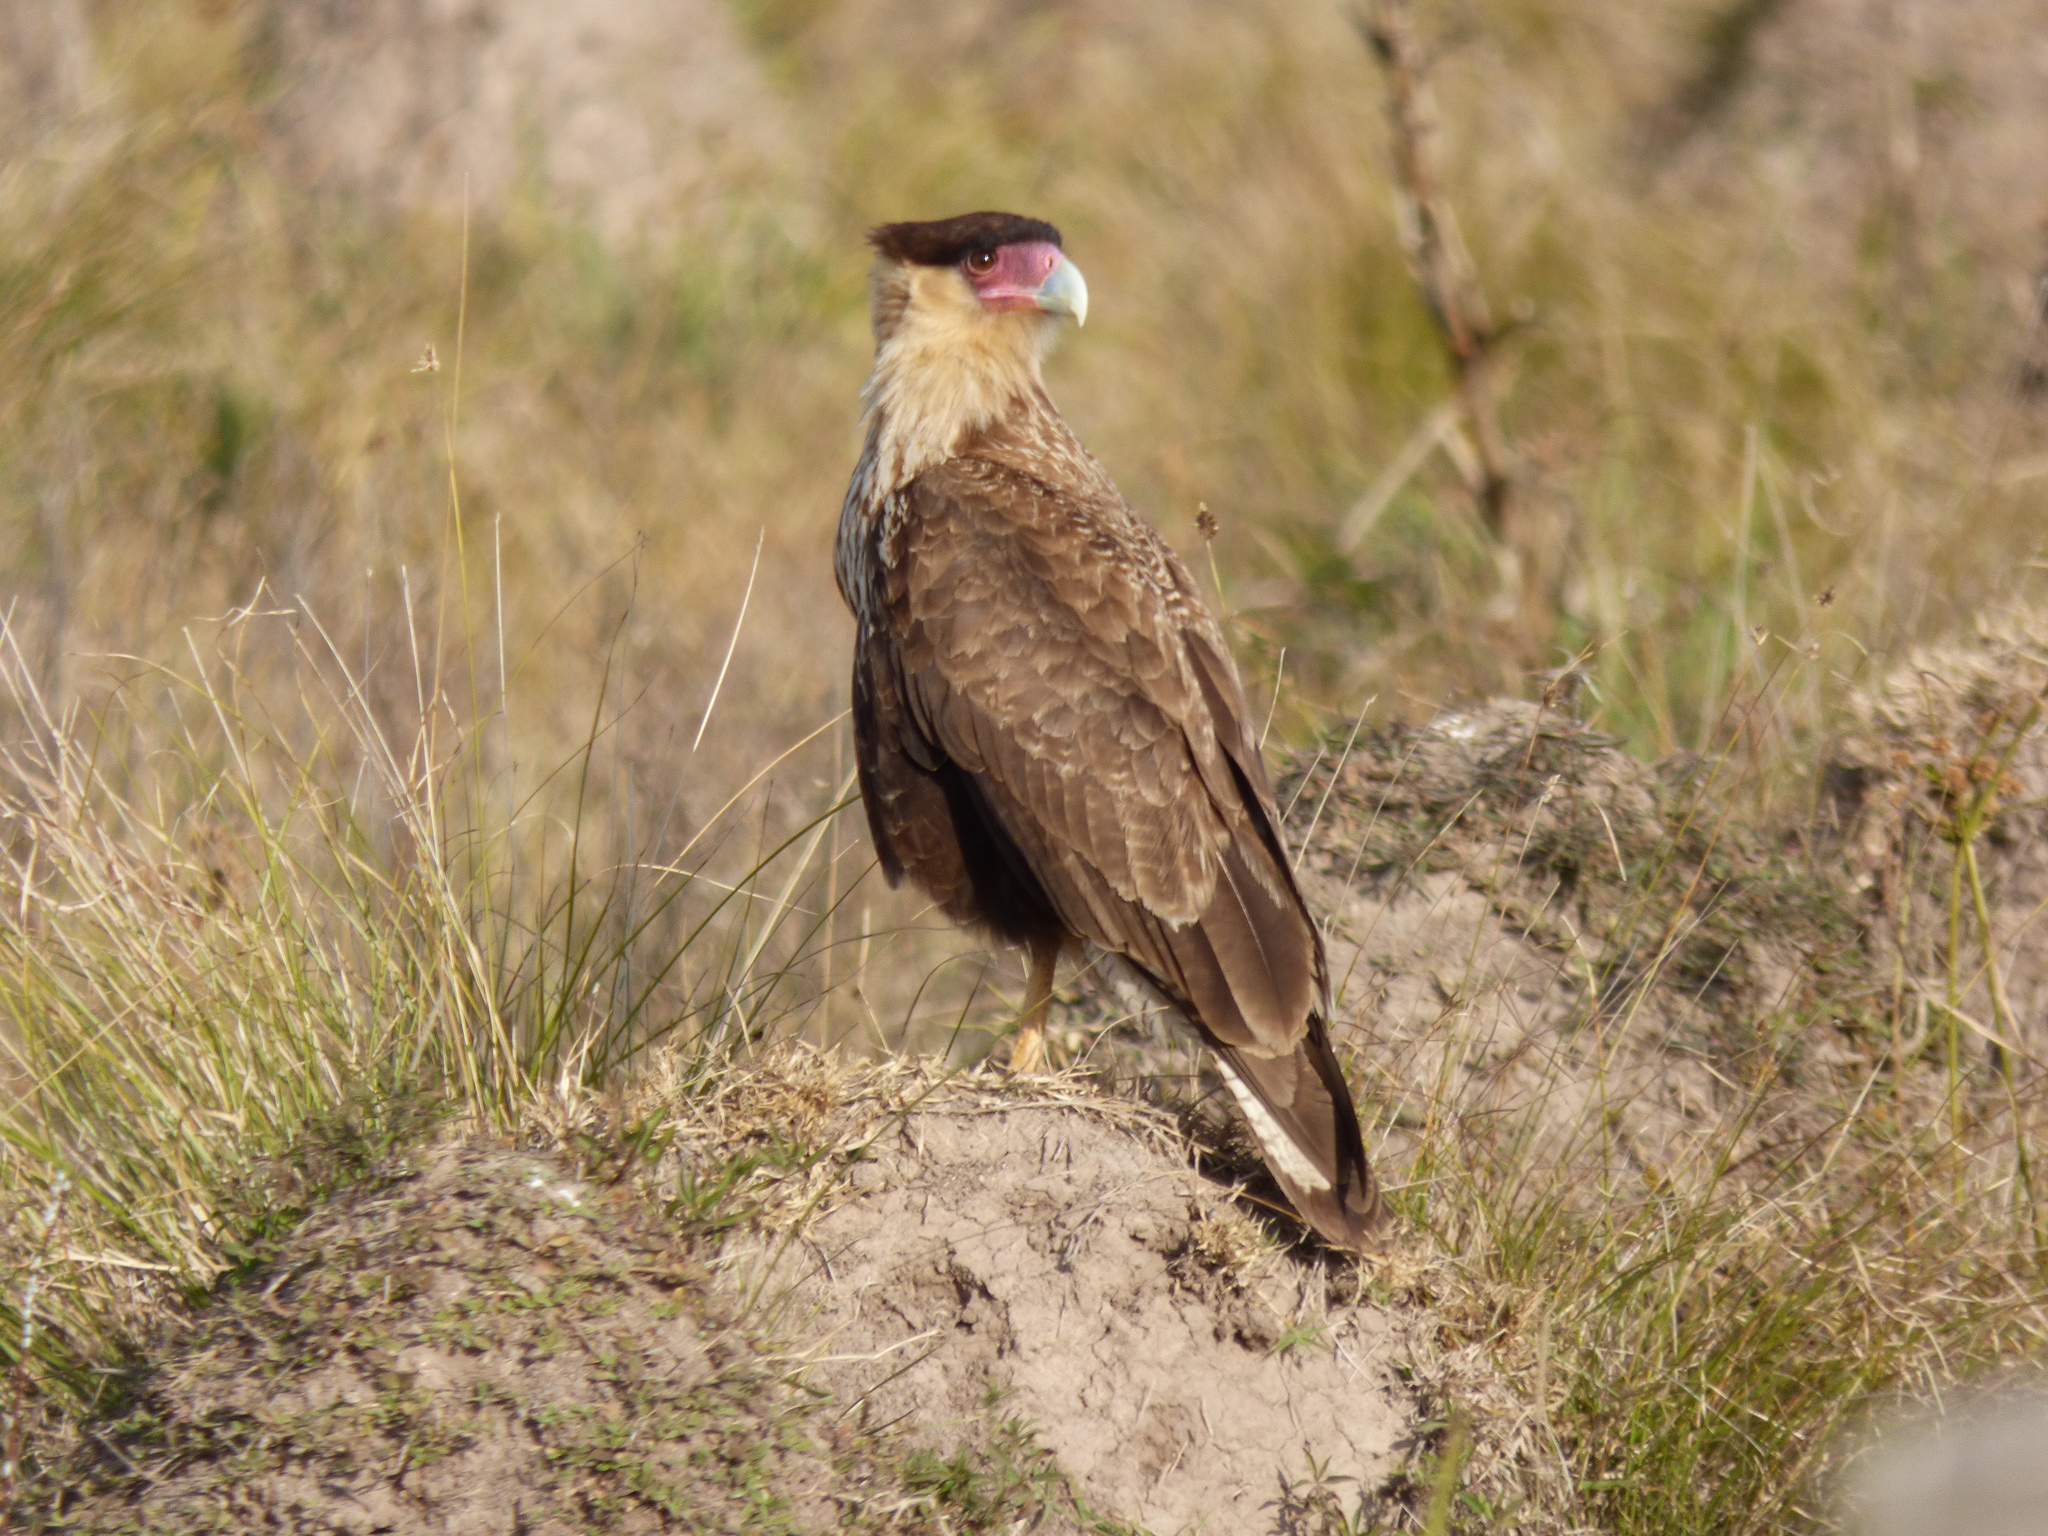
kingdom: Animalia
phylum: Chordata
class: Aves
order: Falconiformes
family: Falconidae
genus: Caracara
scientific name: Caracara plancus
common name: Southern caracara
